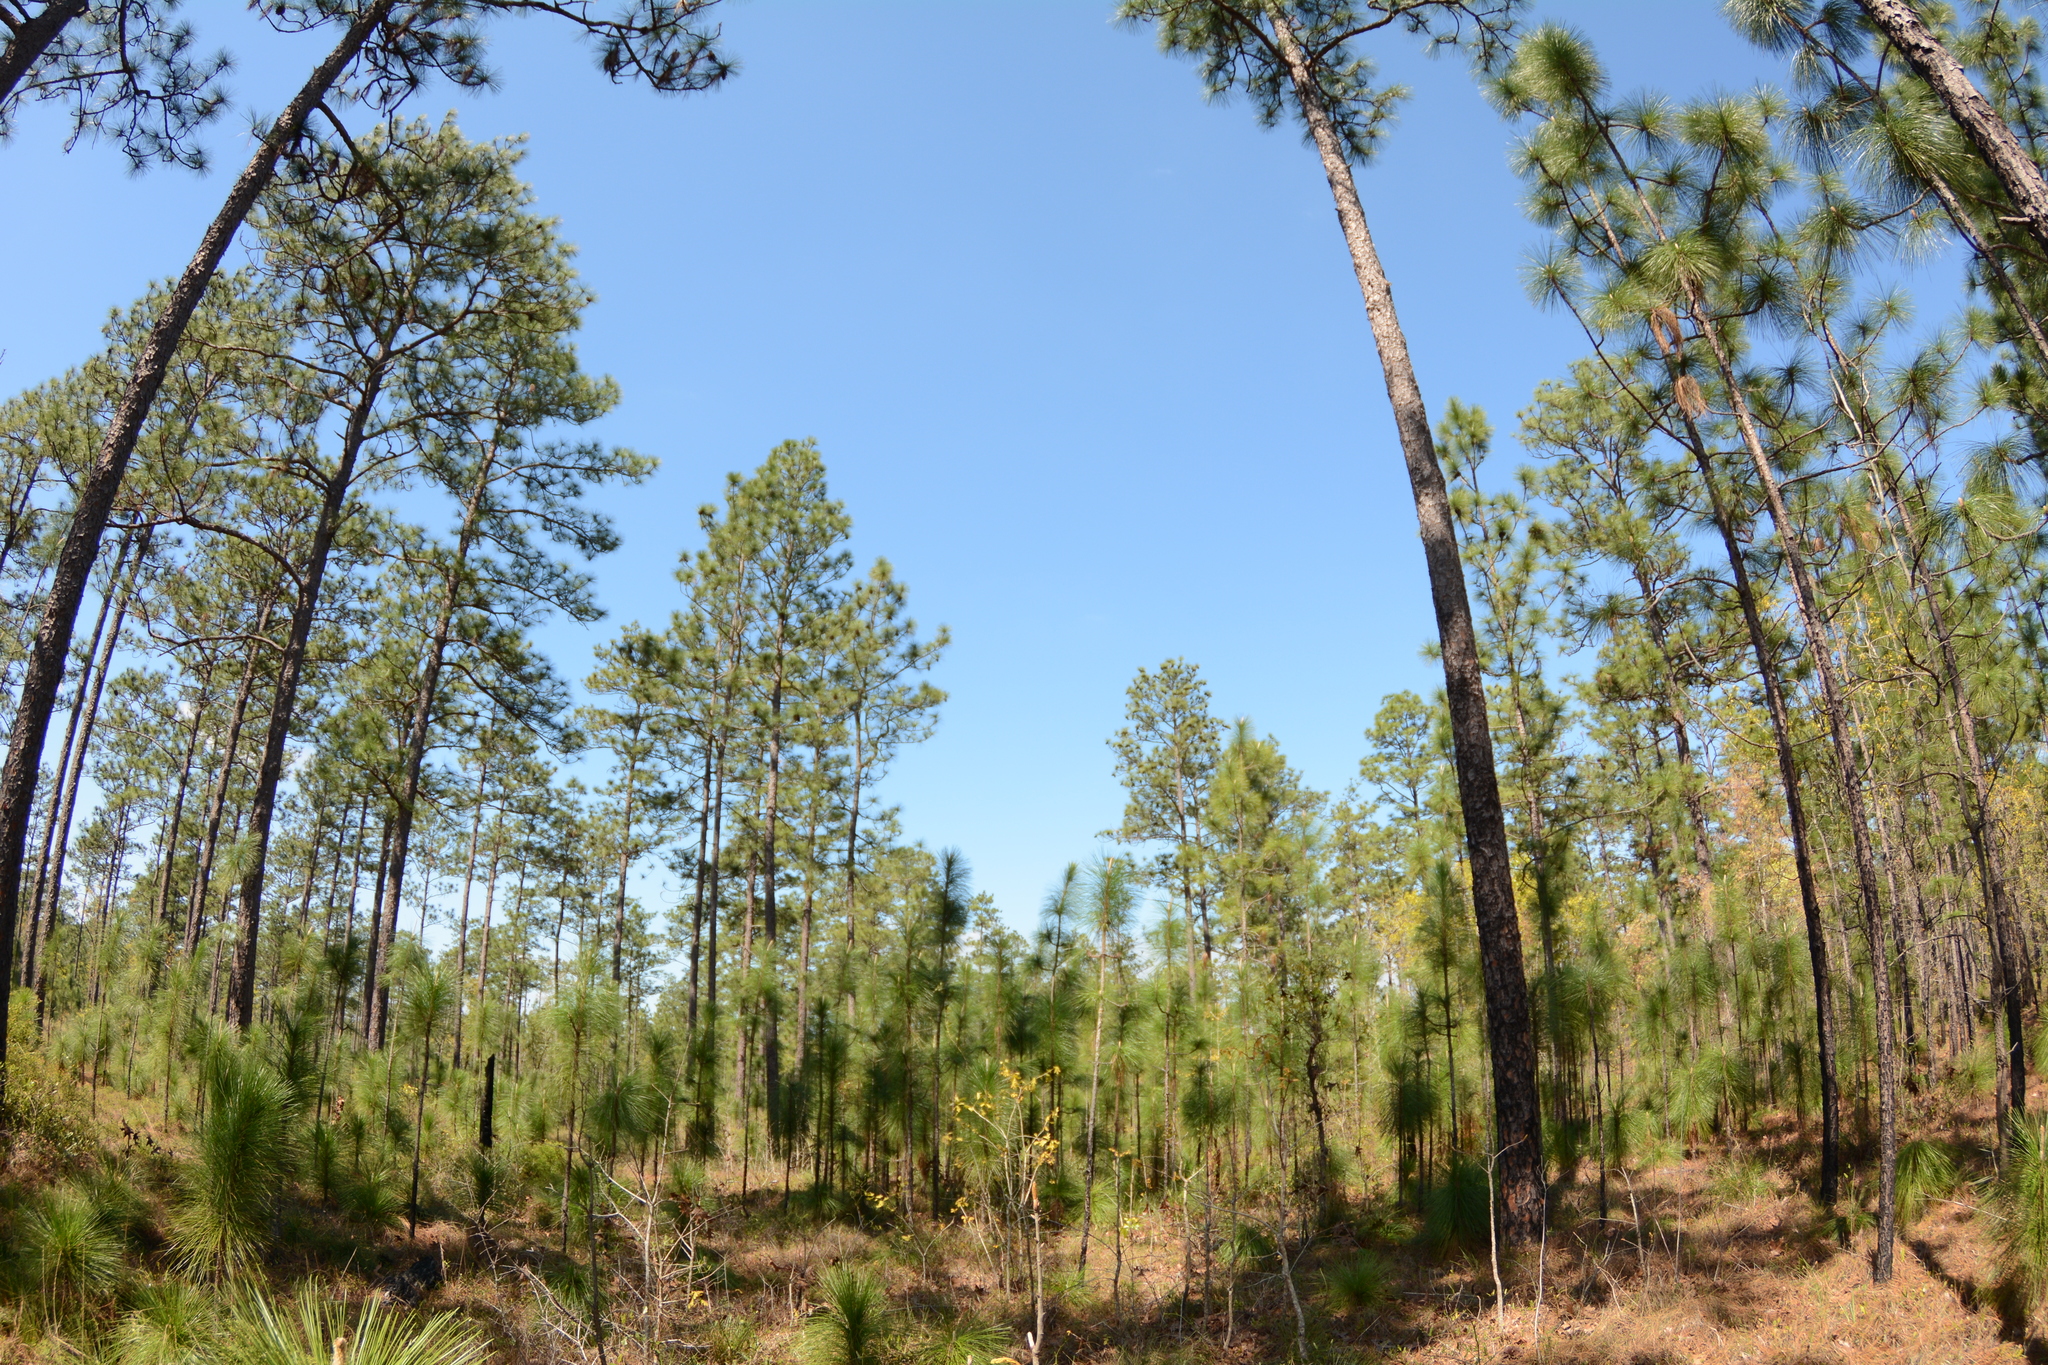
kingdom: Plantae
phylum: Tracheophyta
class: Pinopsida
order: Pinales
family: Pinaceae
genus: Pinus
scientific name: Pinus palustris
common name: Longleaf pine
